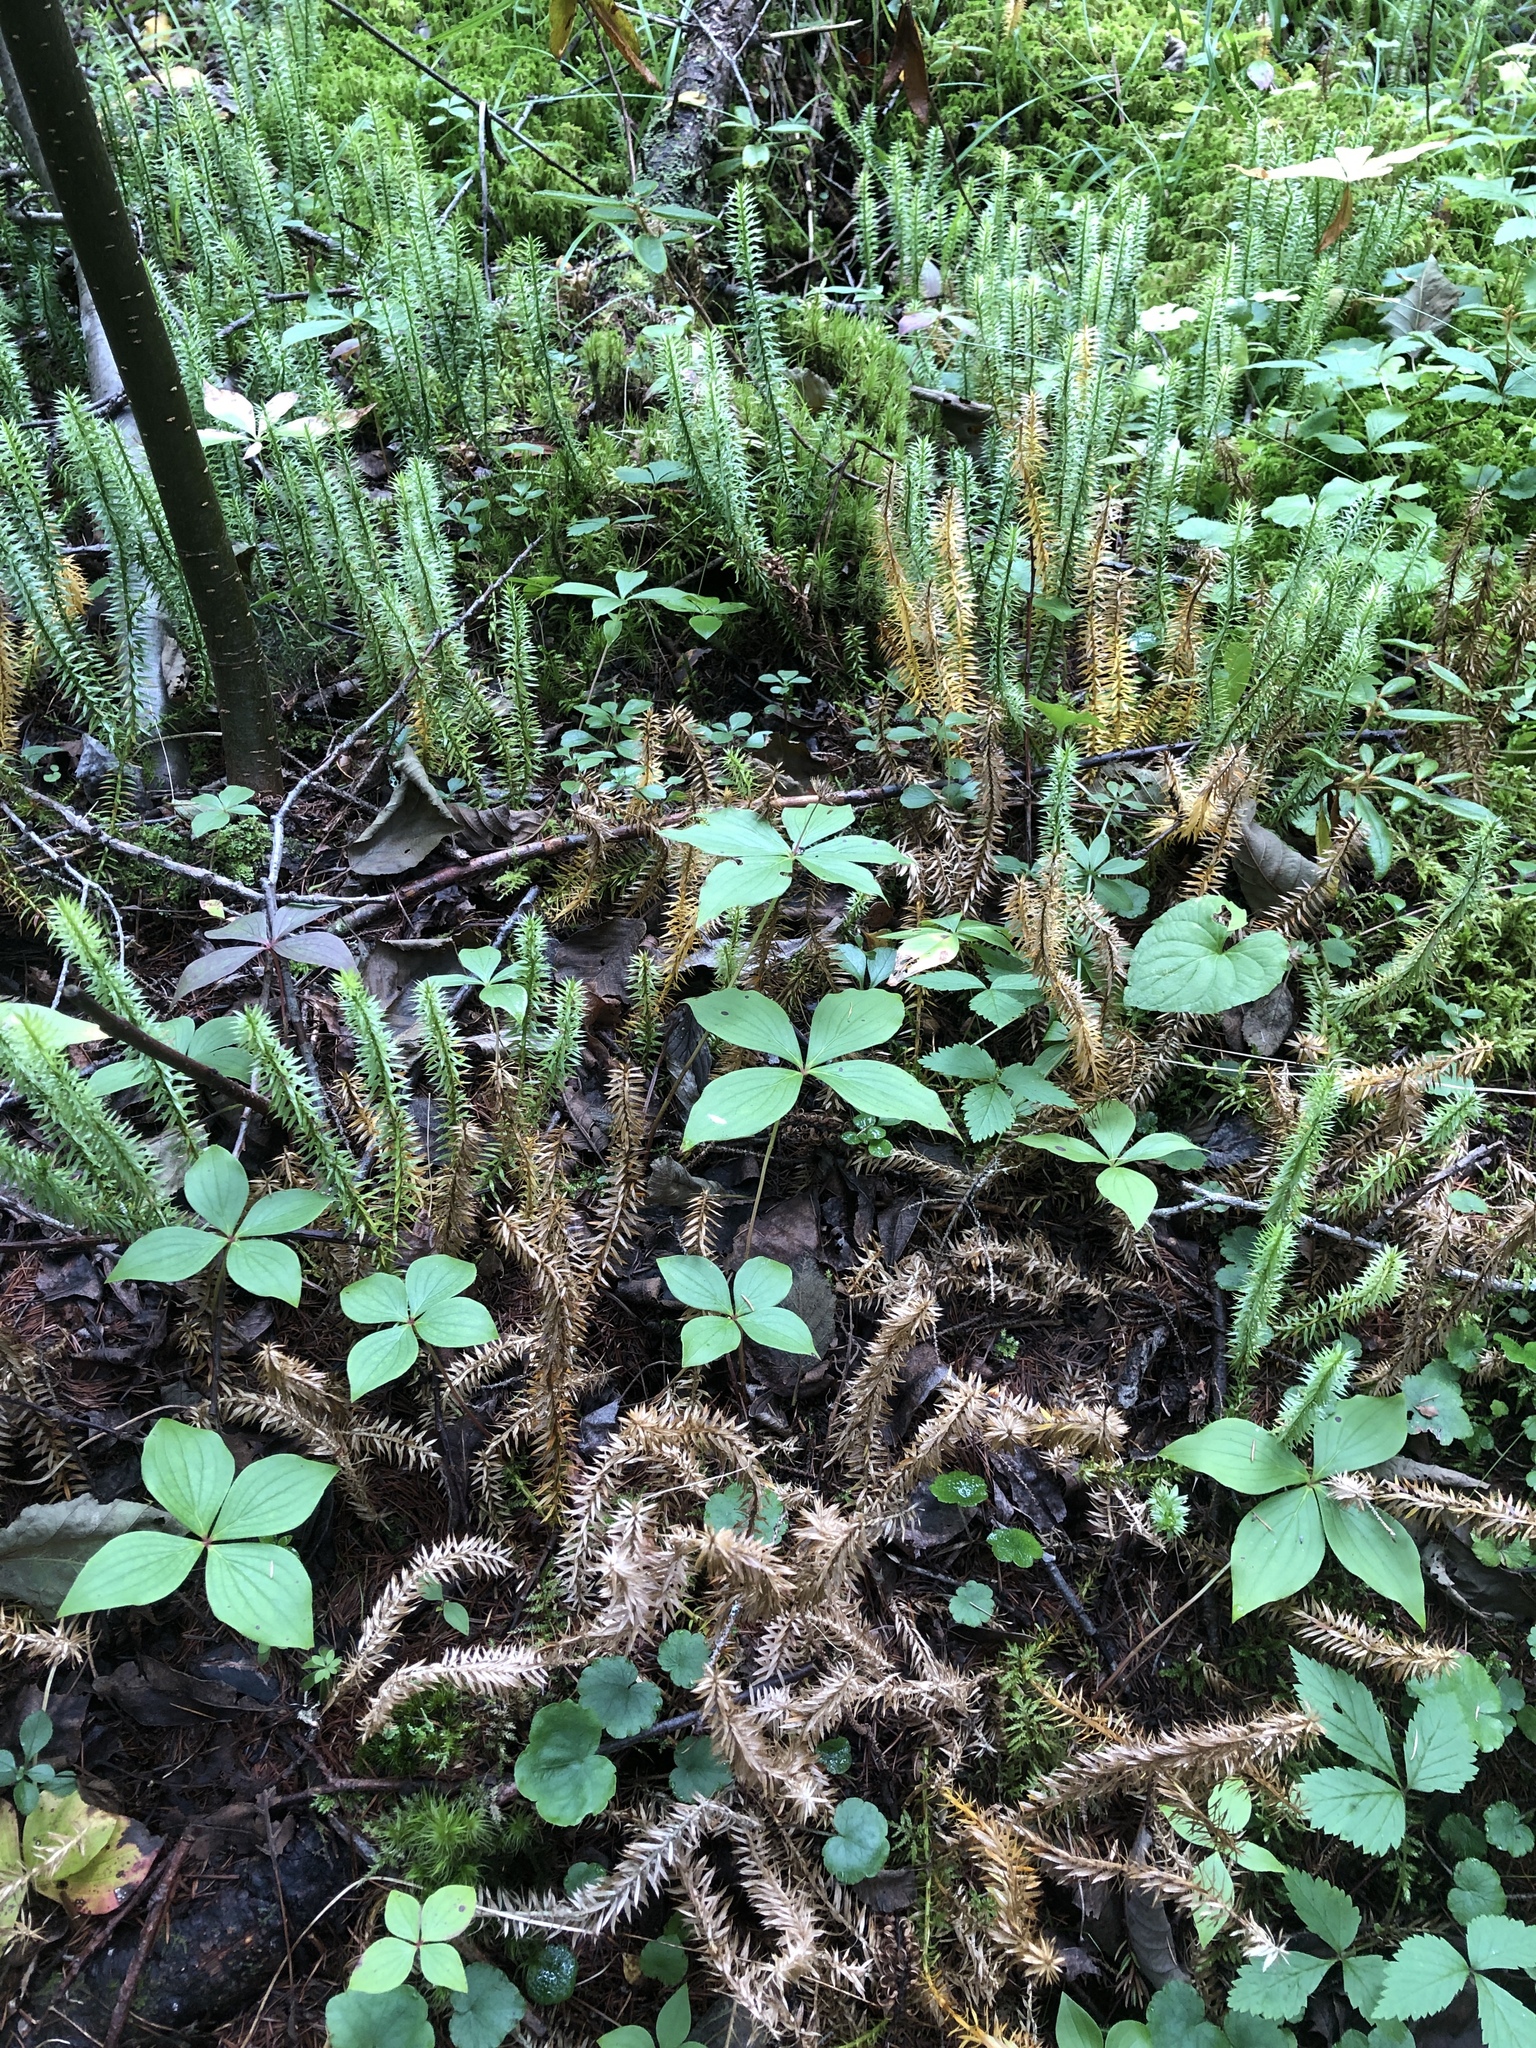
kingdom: Plantae
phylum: Tracheophyta
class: Lycopodiopsida
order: Lycopodiales
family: Lycopodiaceae
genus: Spinulum
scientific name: Spinulum annotinum
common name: Interrupted club-moss
